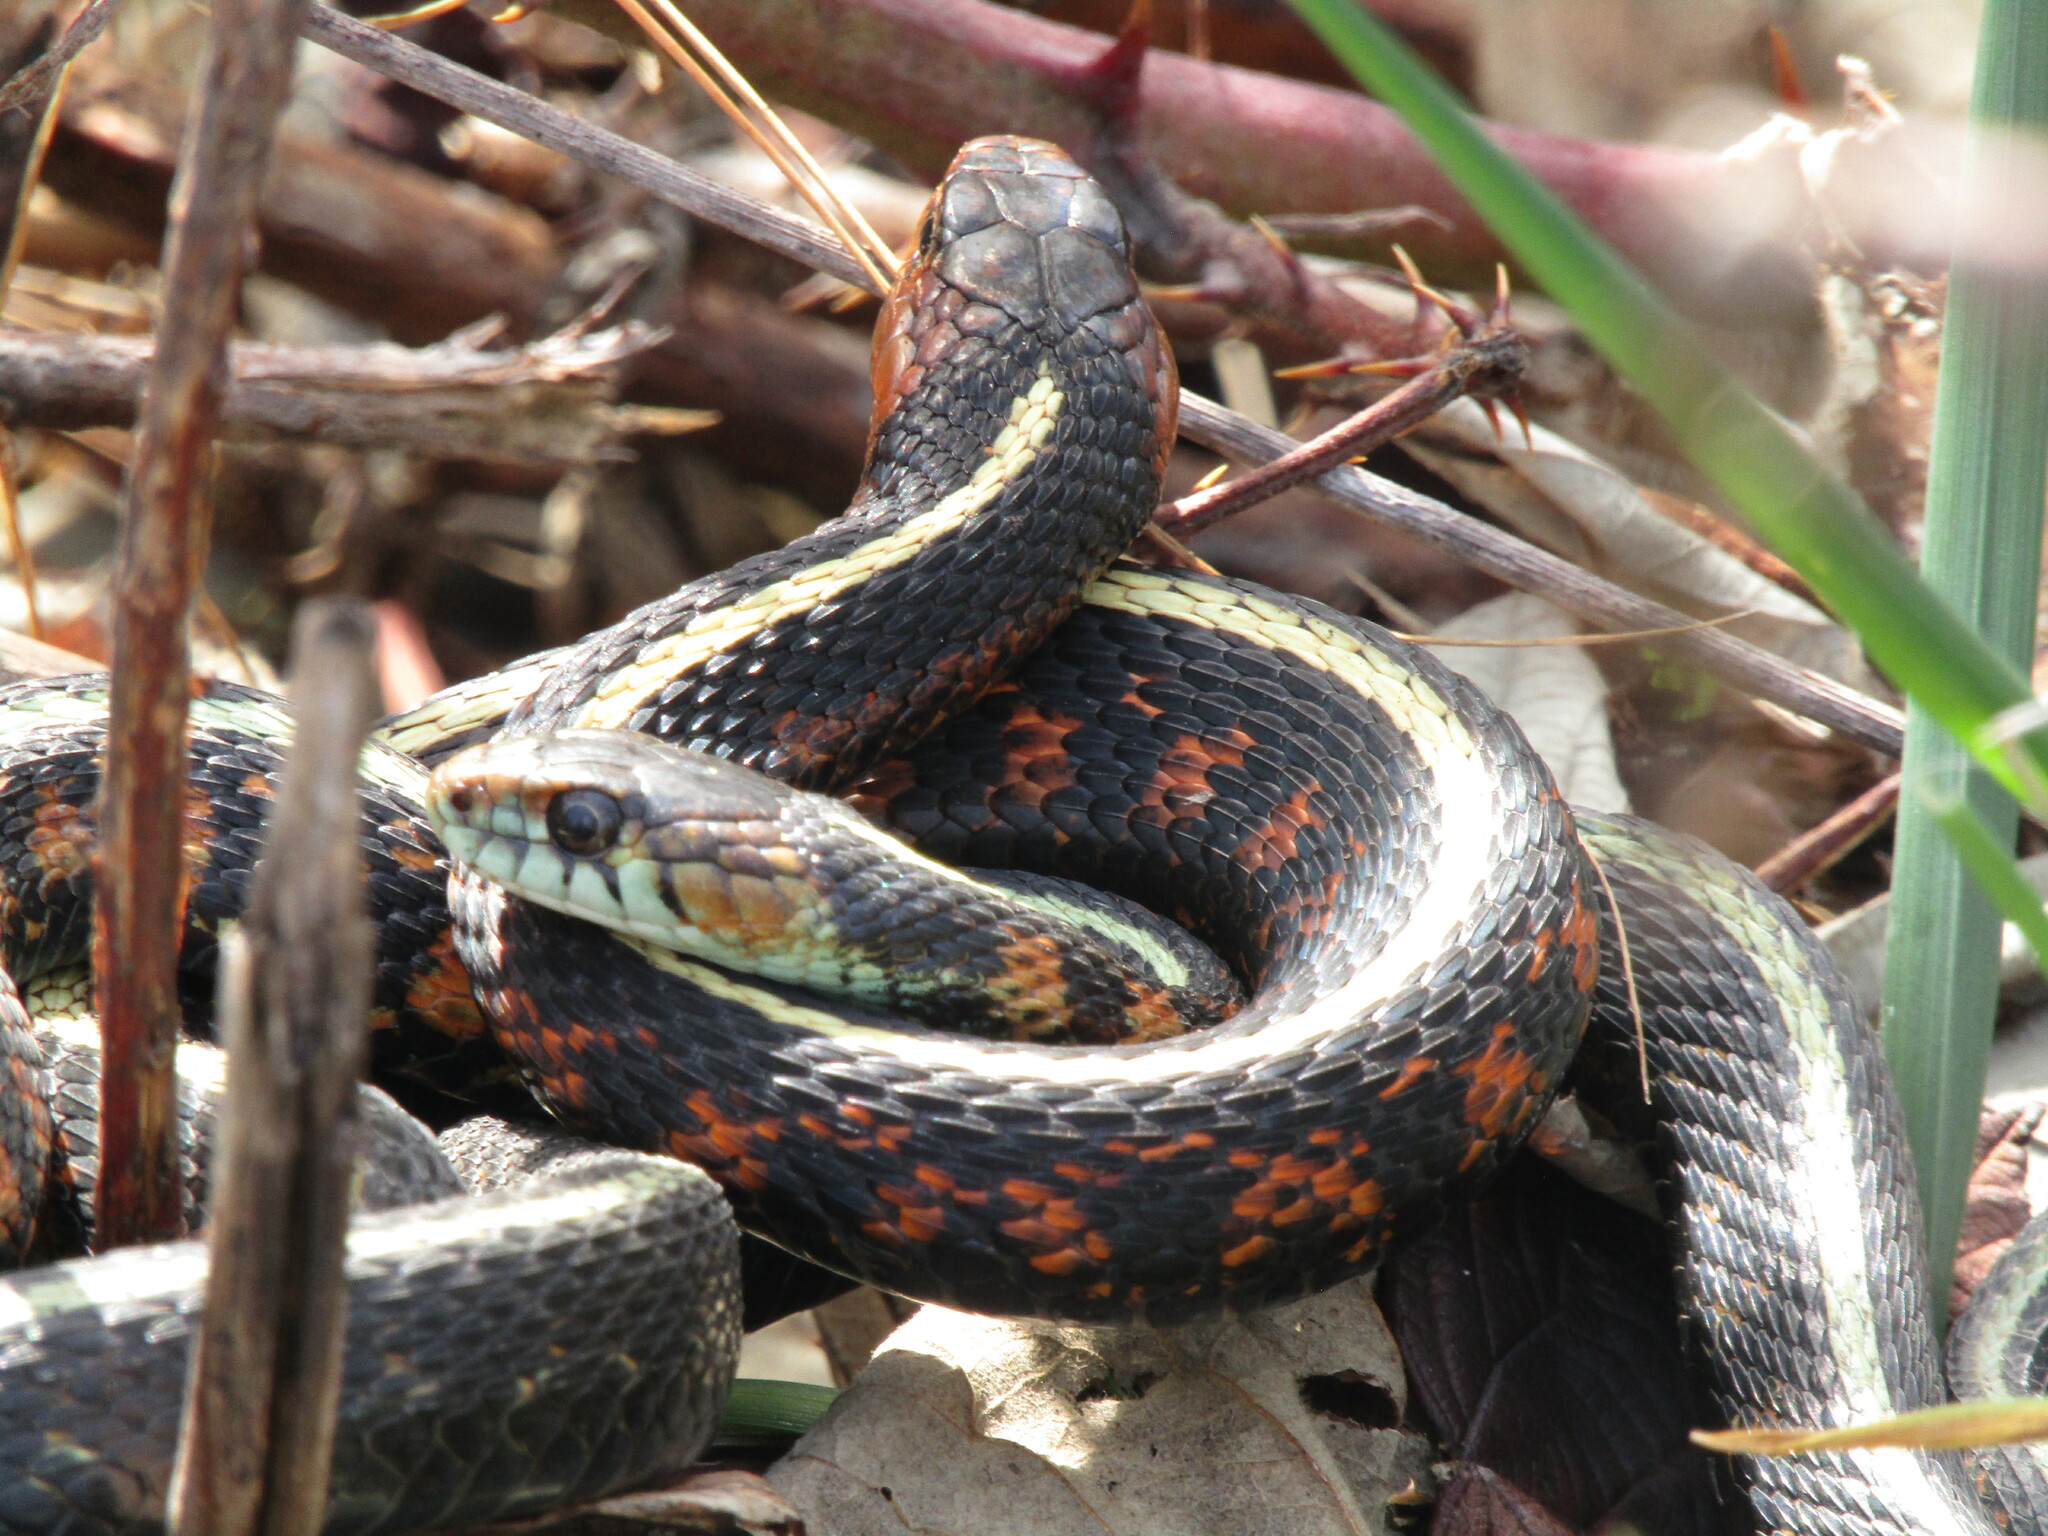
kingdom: Animalia
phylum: Chordata
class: Squamata
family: Colubridae
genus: Thamnophis
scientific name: Thamnophis sirtalis
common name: Common garter snake
